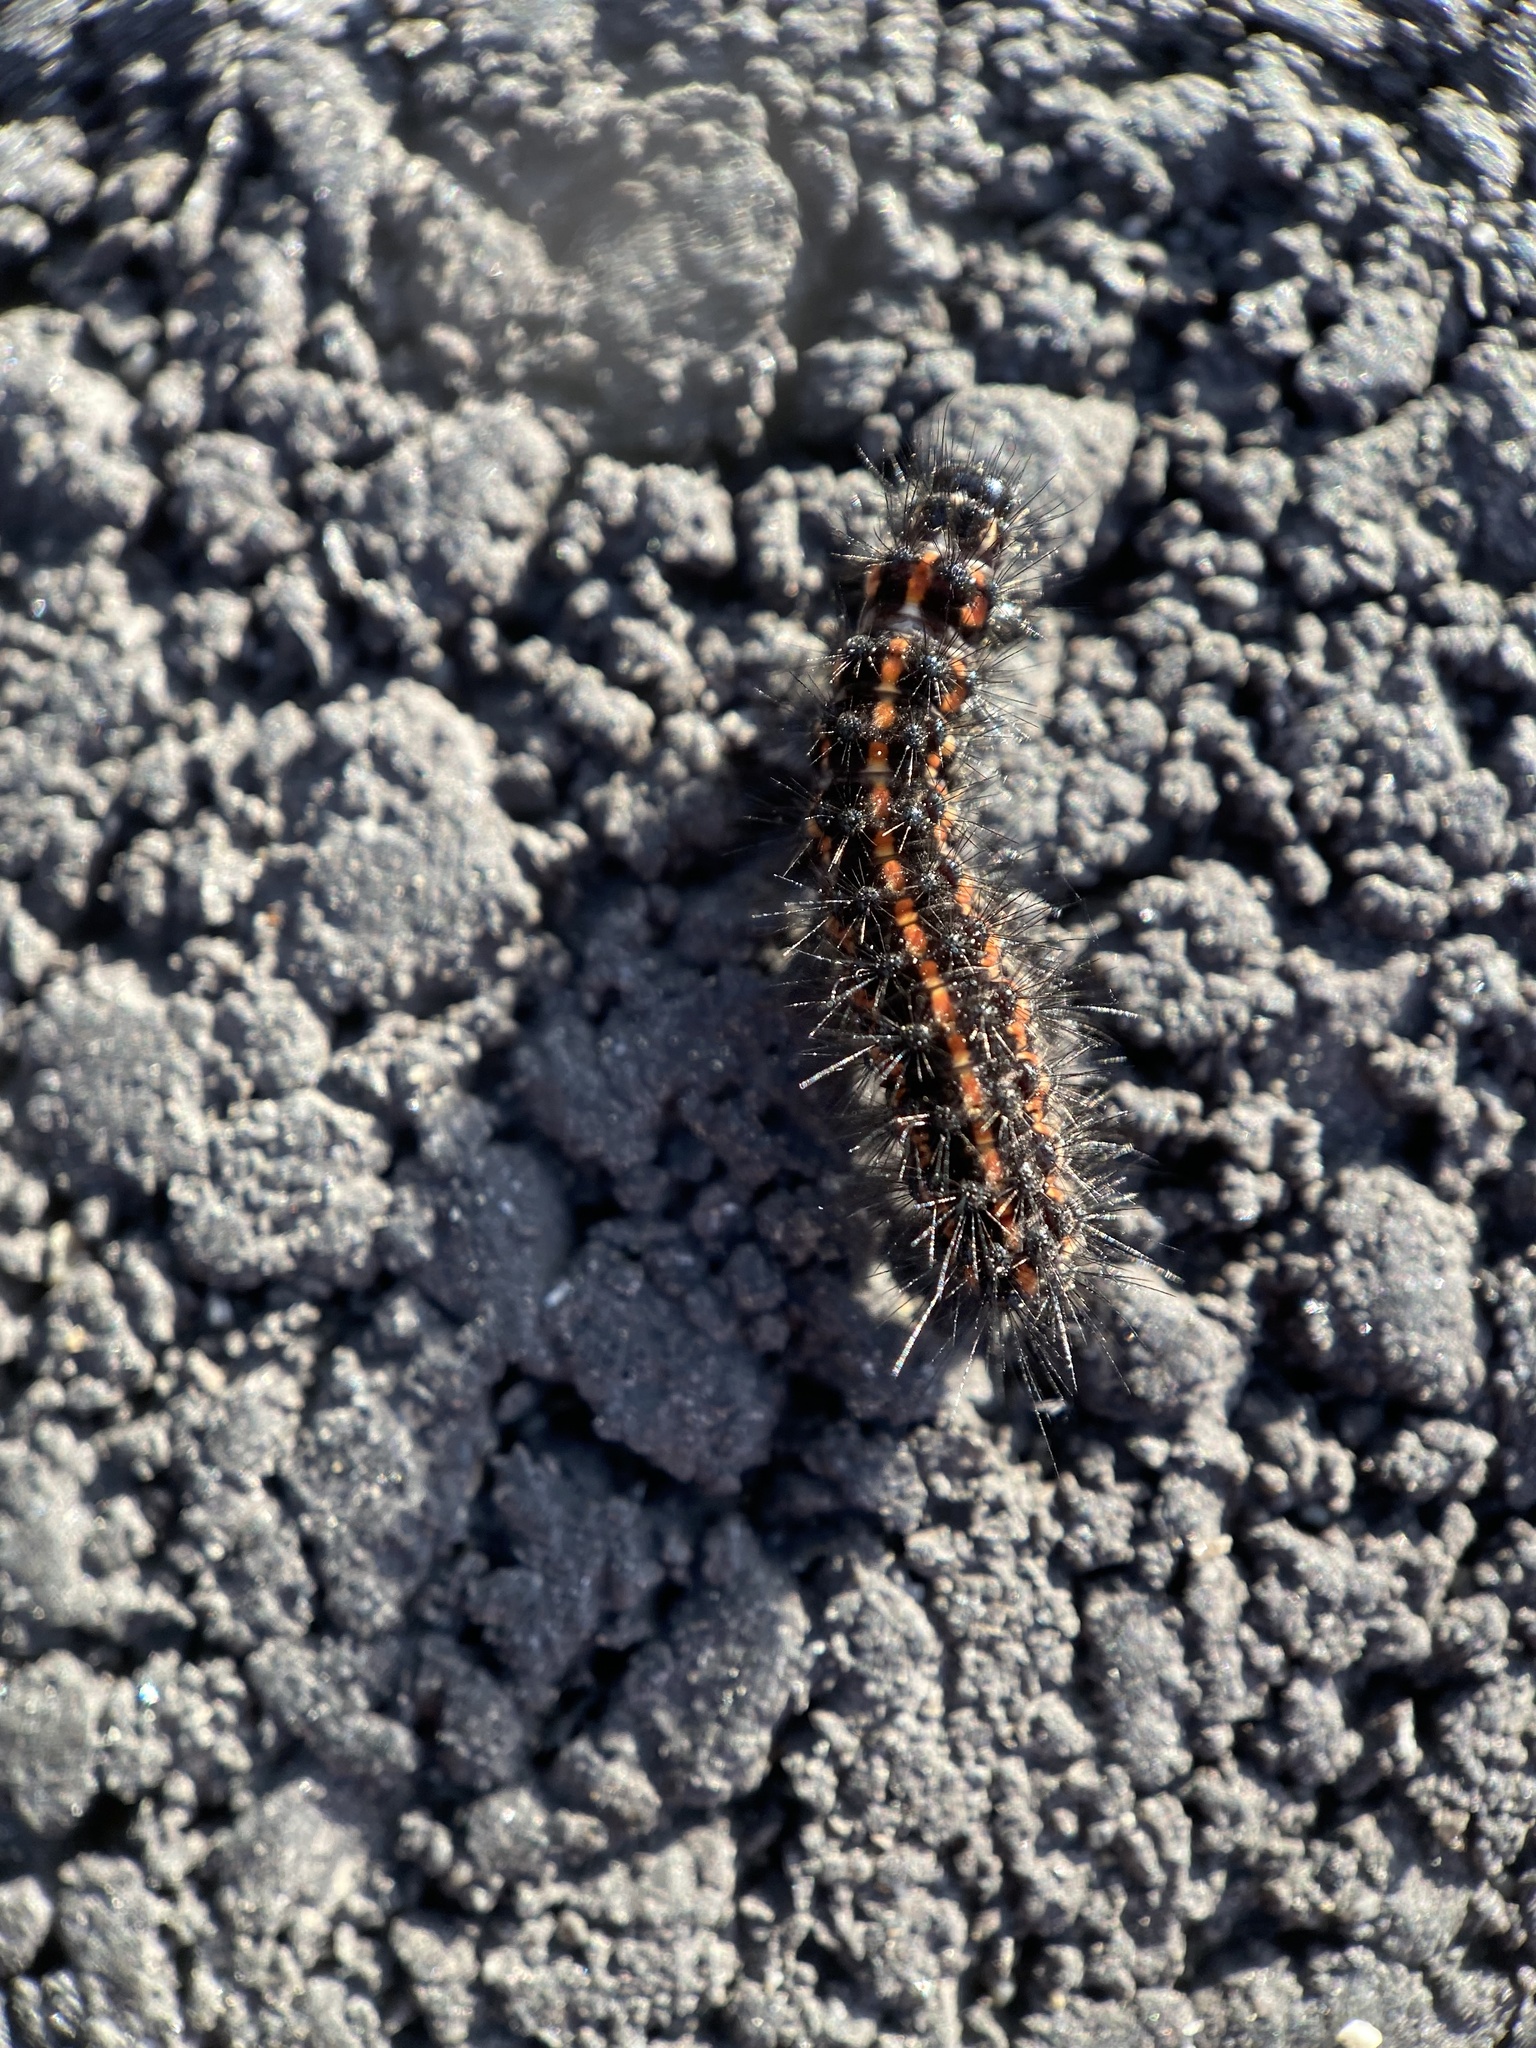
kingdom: Animalia
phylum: Arthropoda
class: Insecta
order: Lepidoptera
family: Erebidae
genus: Nyctemera
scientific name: Nyctemera annulatum
